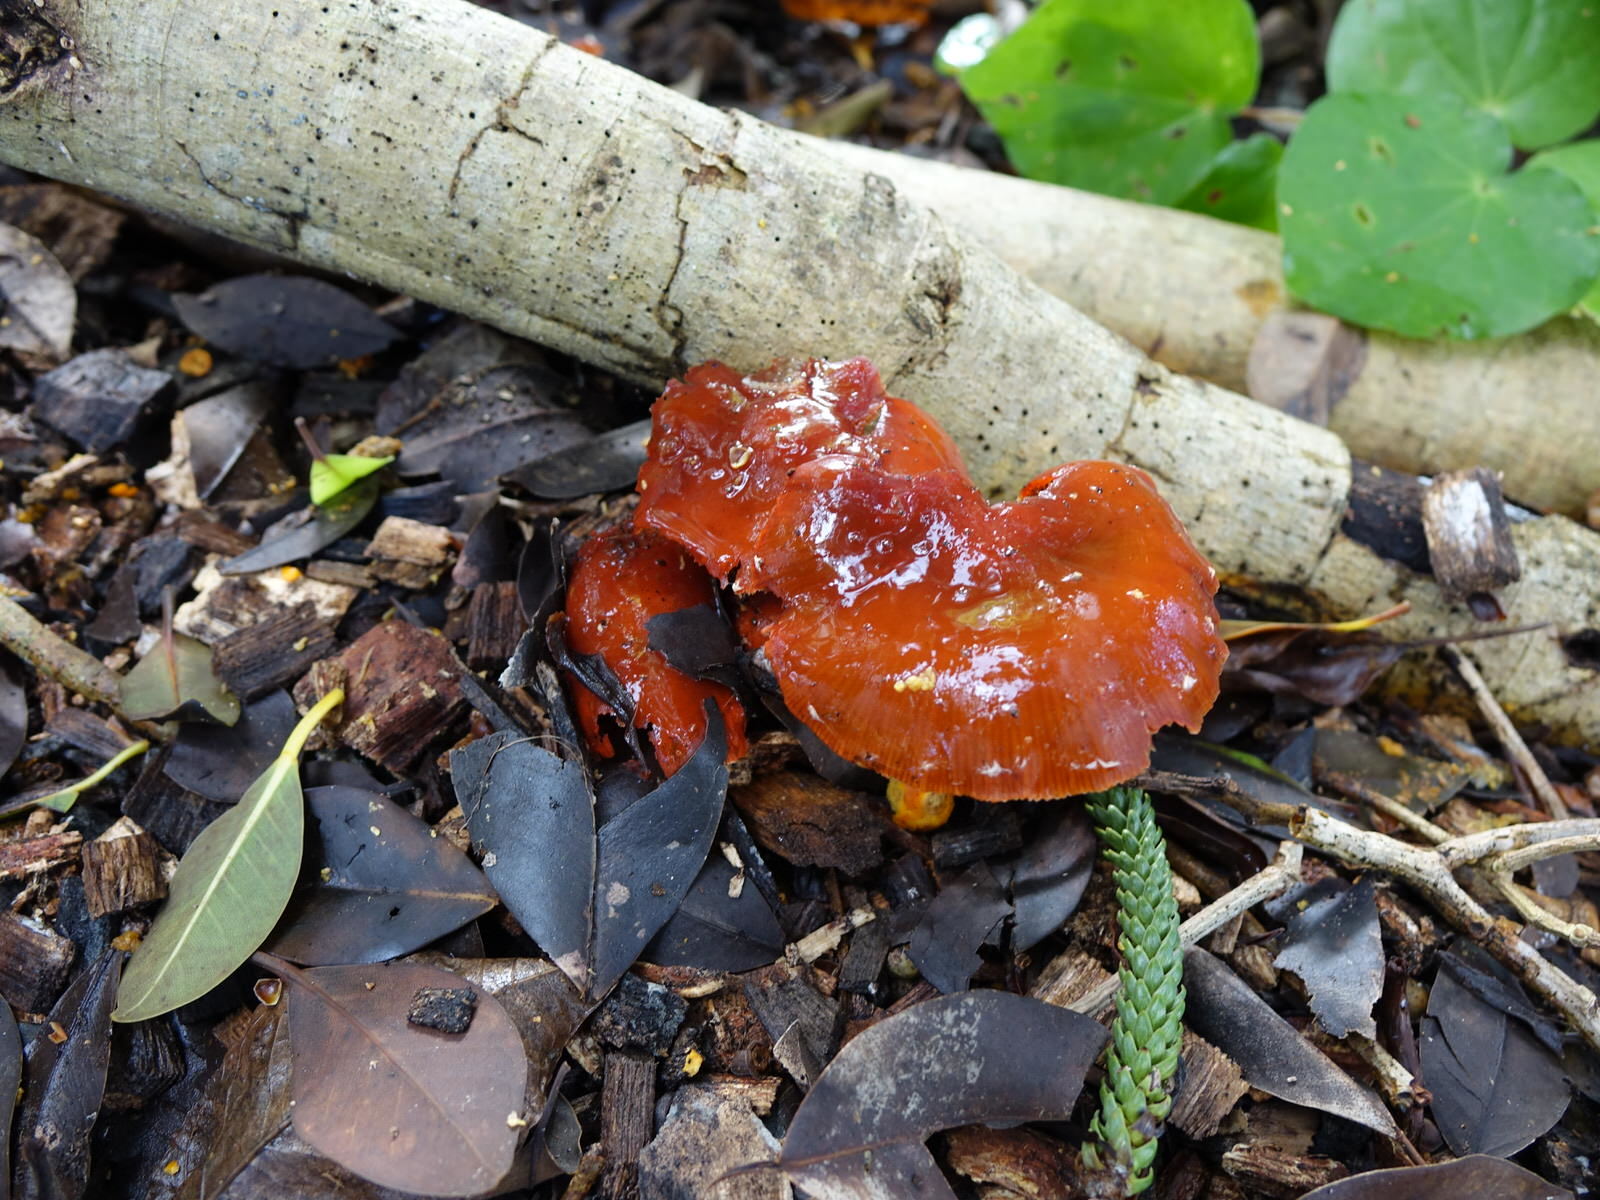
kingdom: Fungi
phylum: Basidiomycota
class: Agaricomycetes
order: Agaricales
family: Strophariaceae
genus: Leratiomyces
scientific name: Leratiomyces ceres
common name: Redlead roundhead
